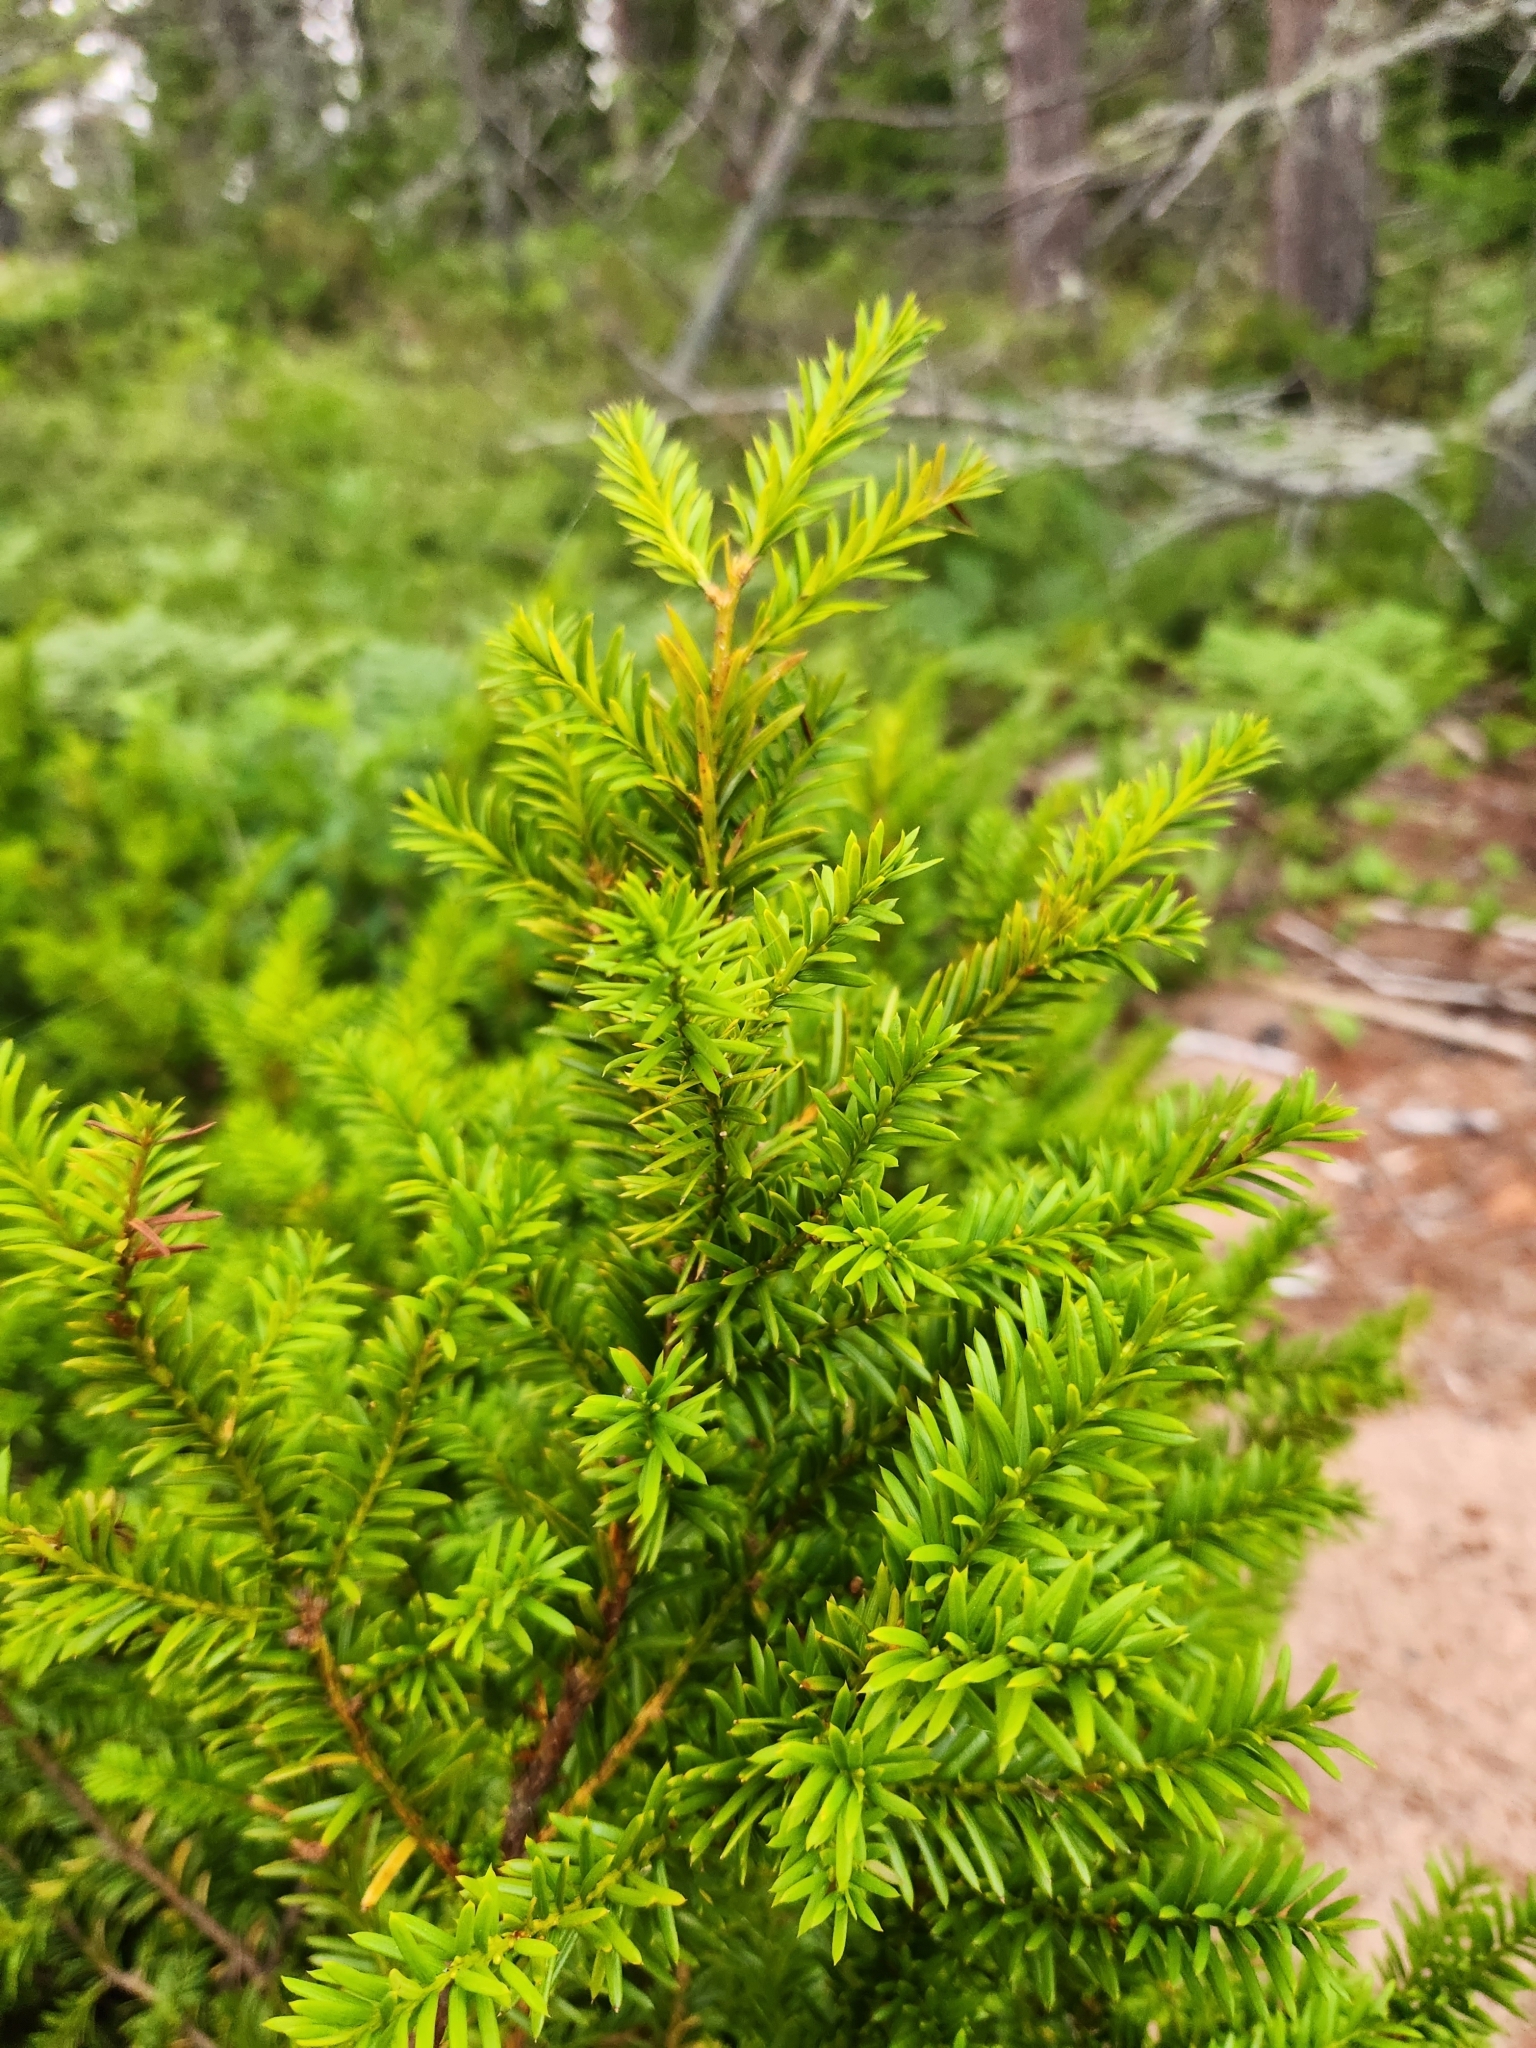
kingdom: Plantae
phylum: Tracheophyta
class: Pinopsida
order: Pinales
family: Taxaceae
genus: Taxus
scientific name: Taxus canadensis
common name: American yew
